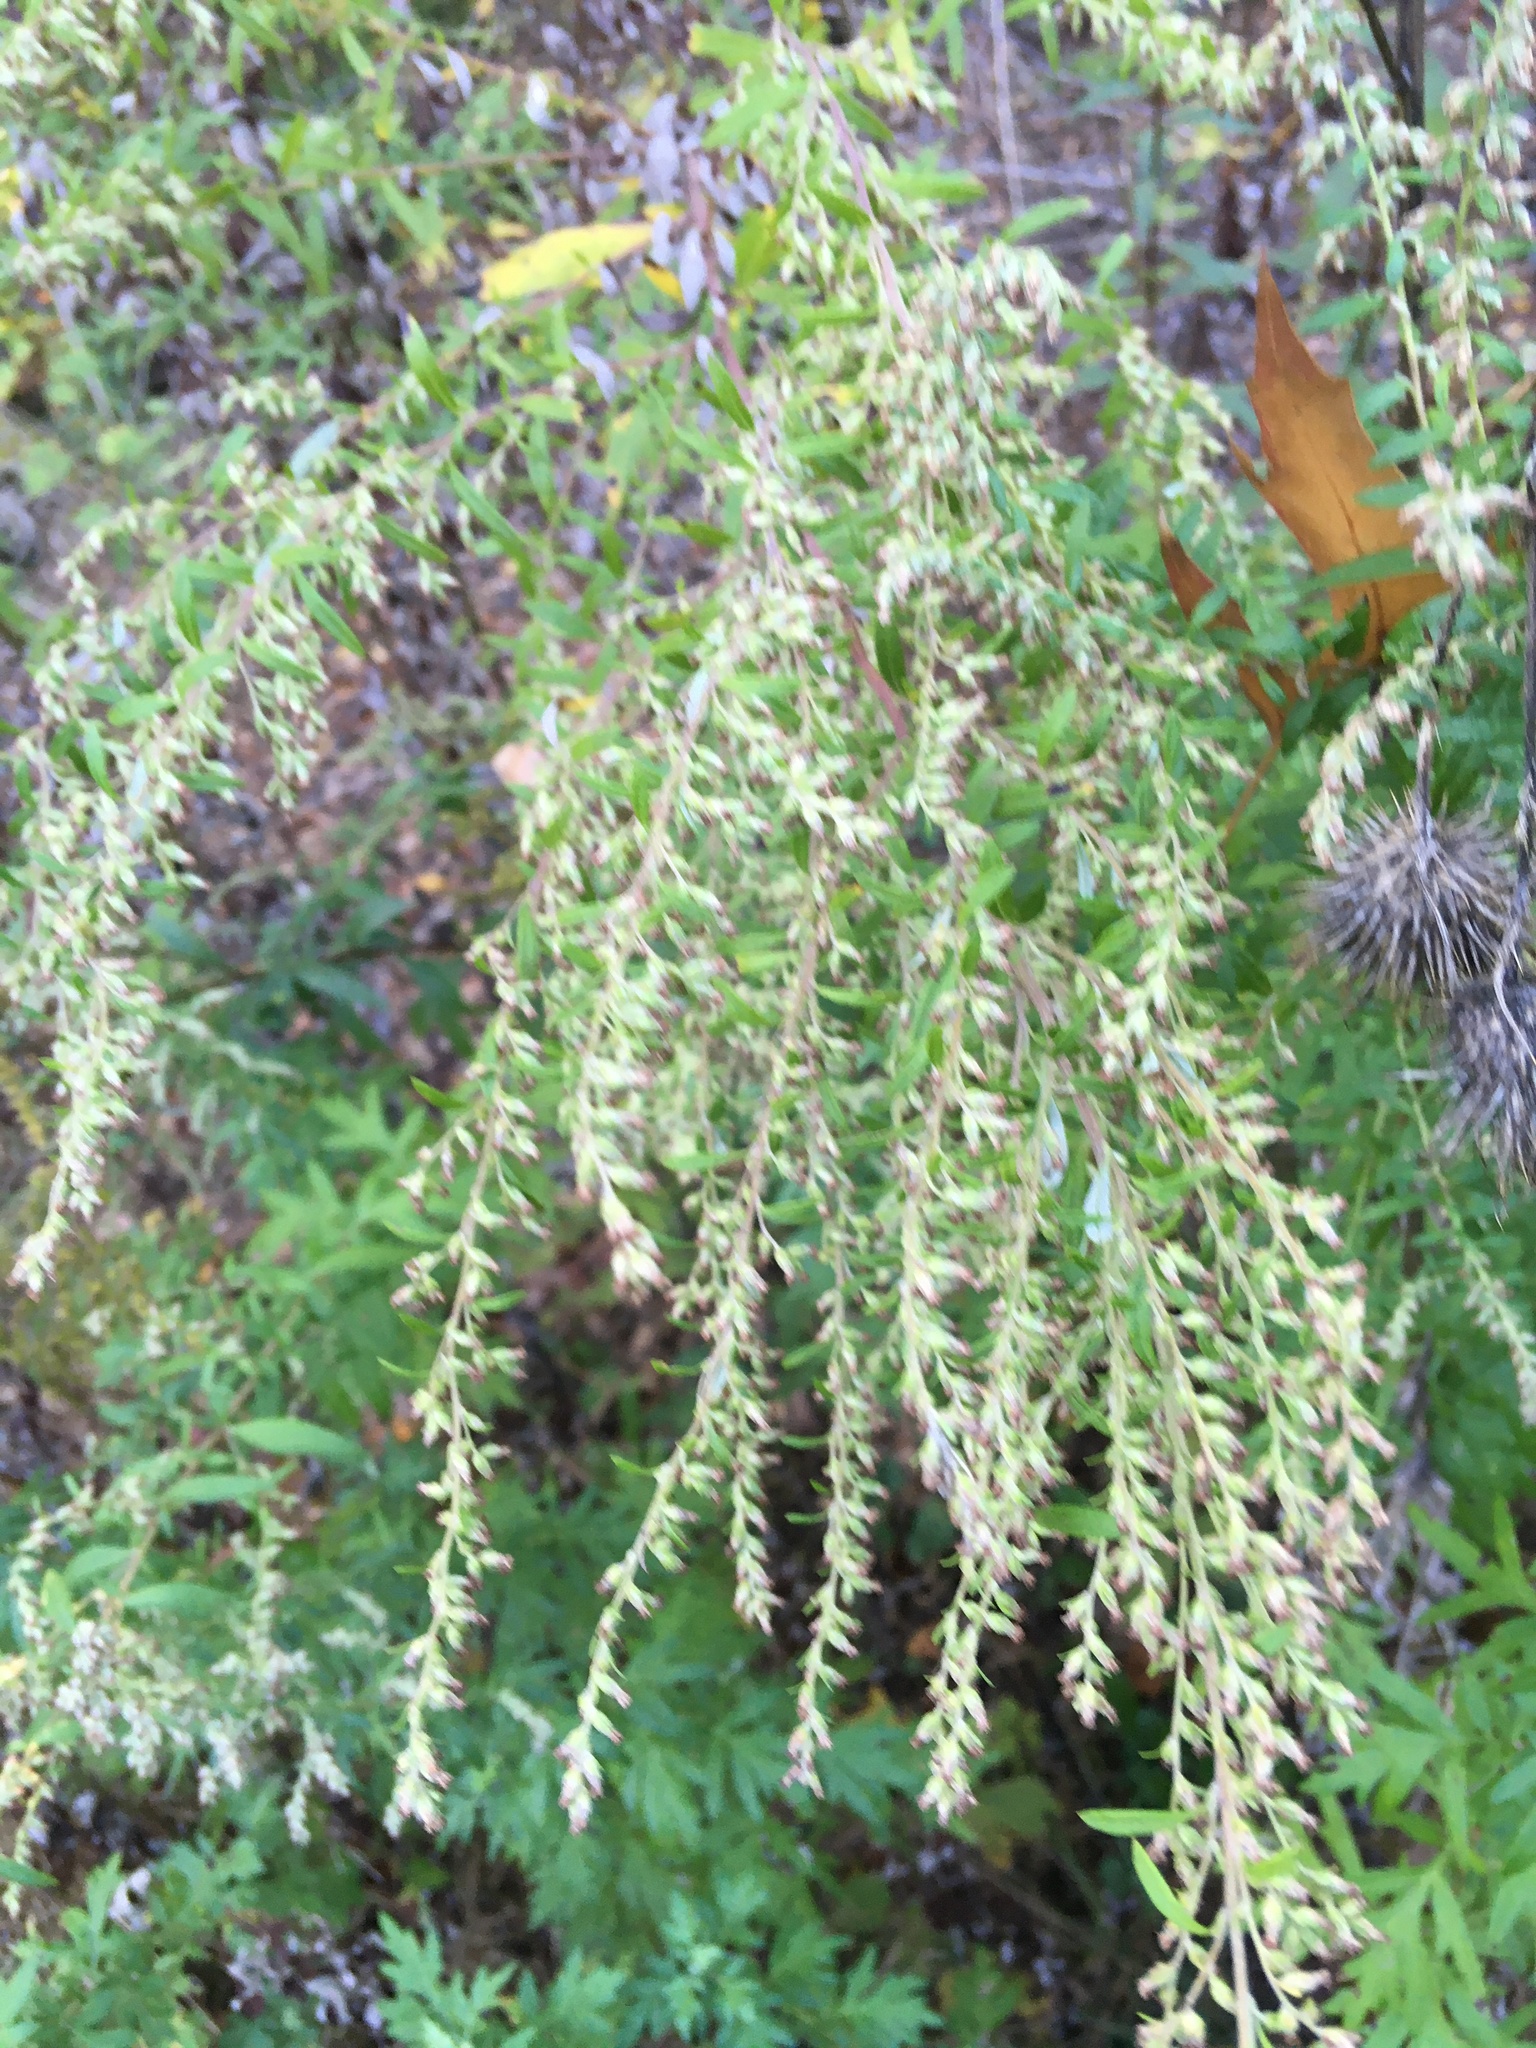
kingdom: Plantae
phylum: Tracheophyta
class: Magnoliopsida
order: Asterales
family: Asteraceae
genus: Artemisia
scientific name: Artemisia vulgaris
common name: Mugwort
